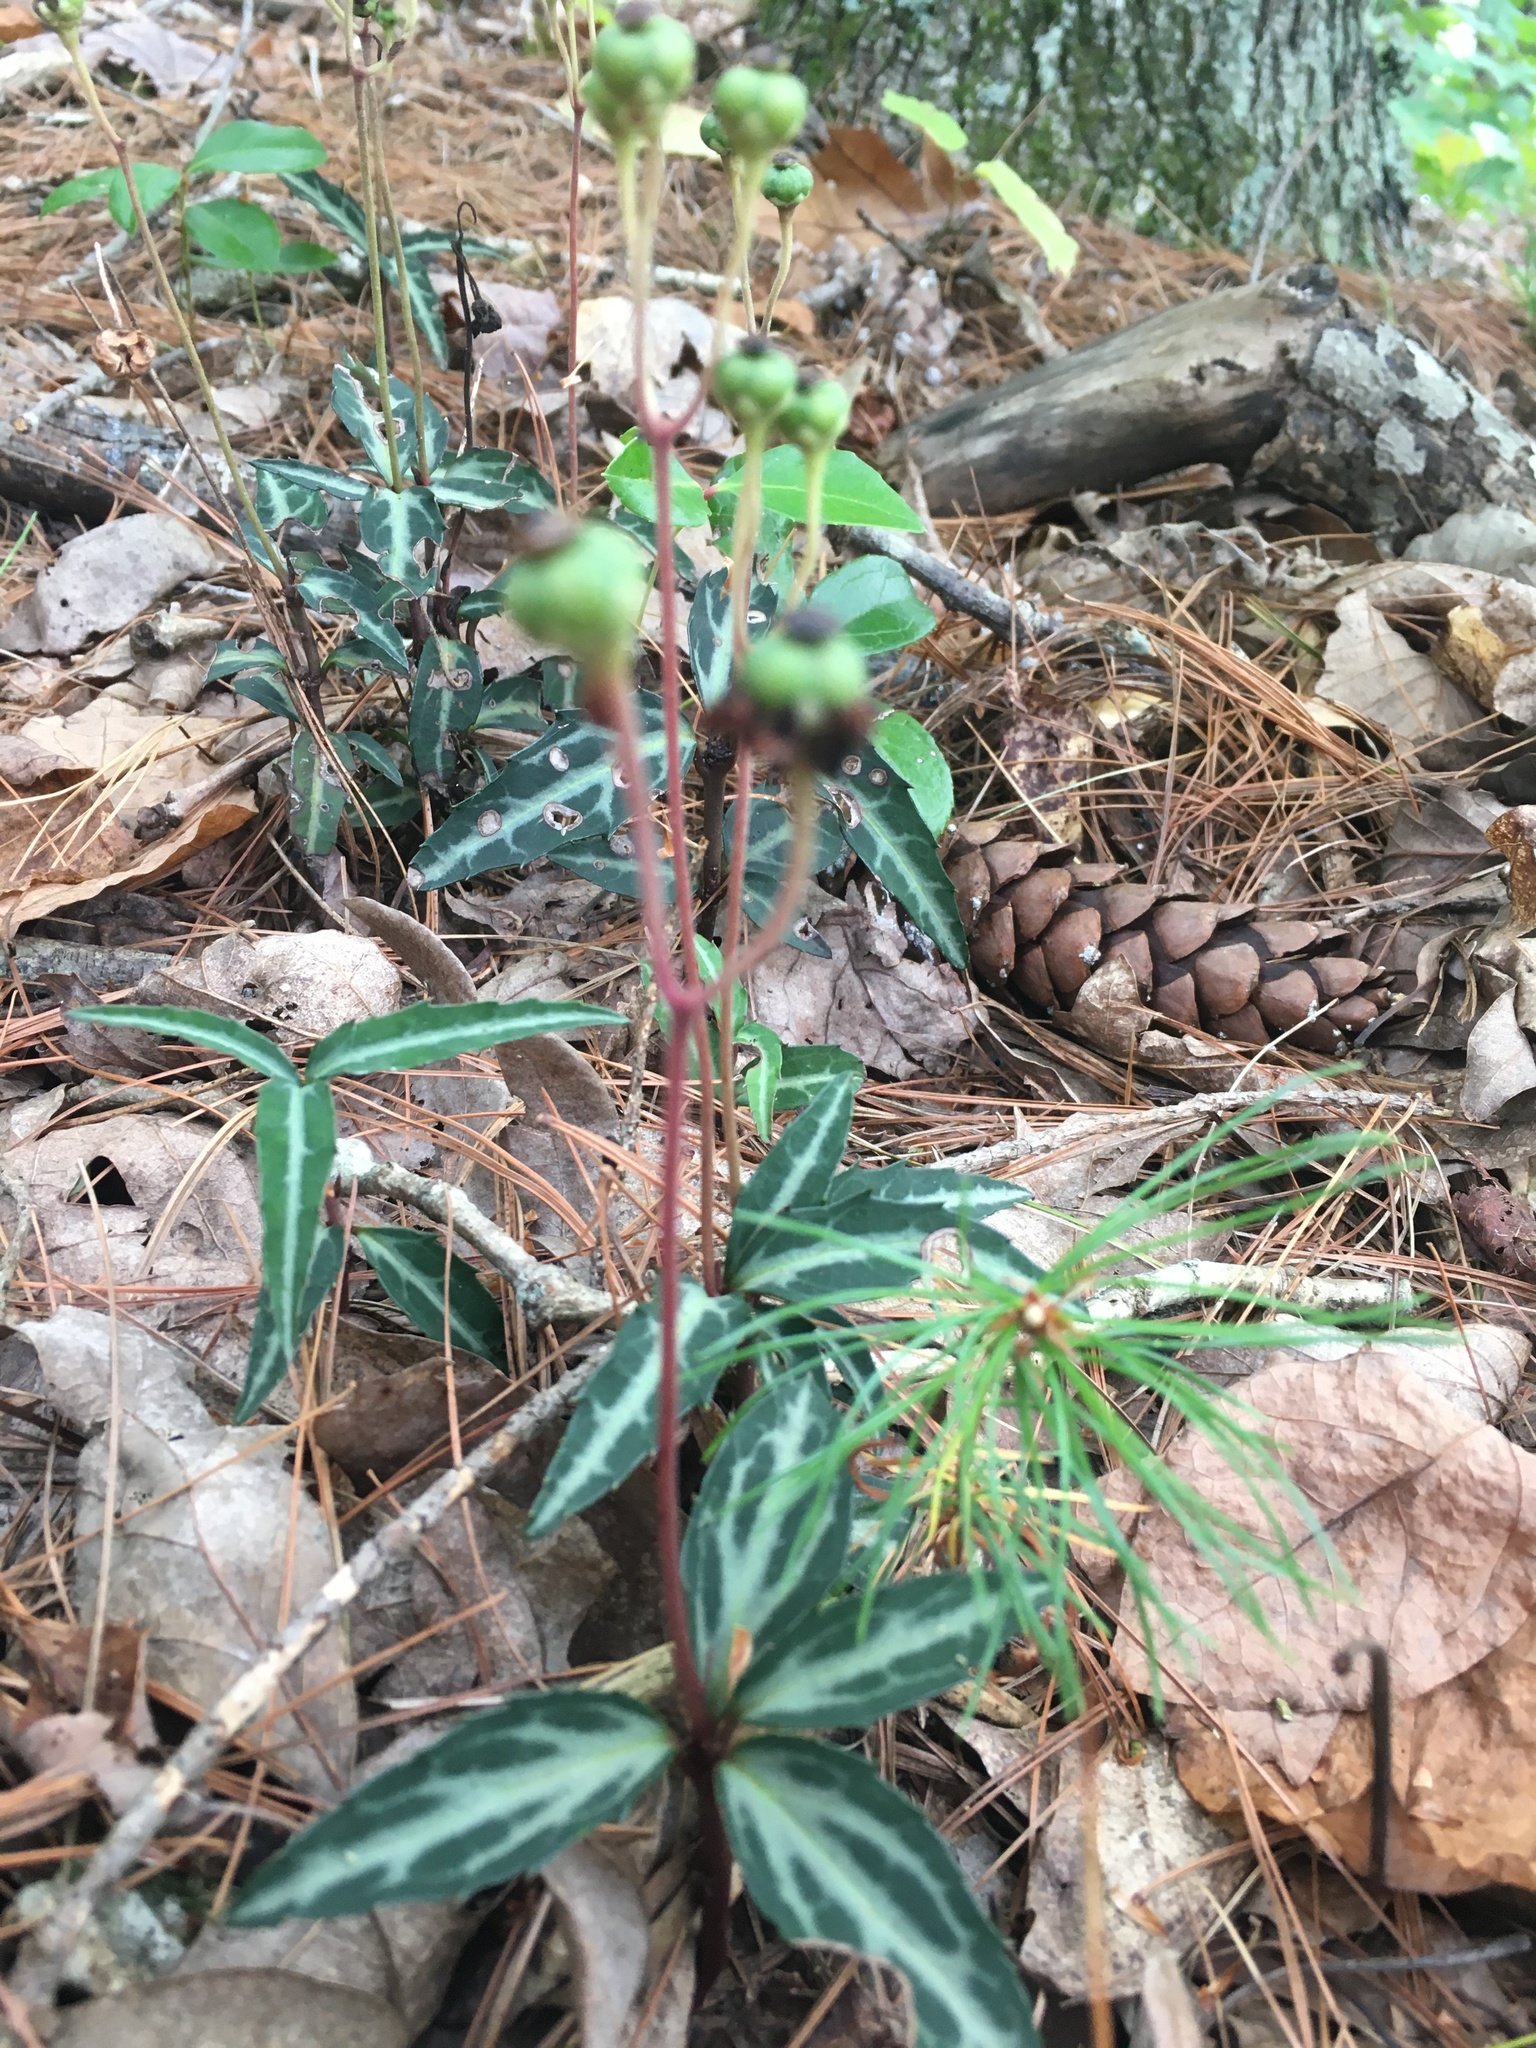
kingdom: Plantae
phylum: Tracheophyta
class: Magnoliopsida
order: Ericales
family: Ericaceae
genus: Chimaphila
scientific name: Chimaphila maculata
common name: Spotted pipsissewa
